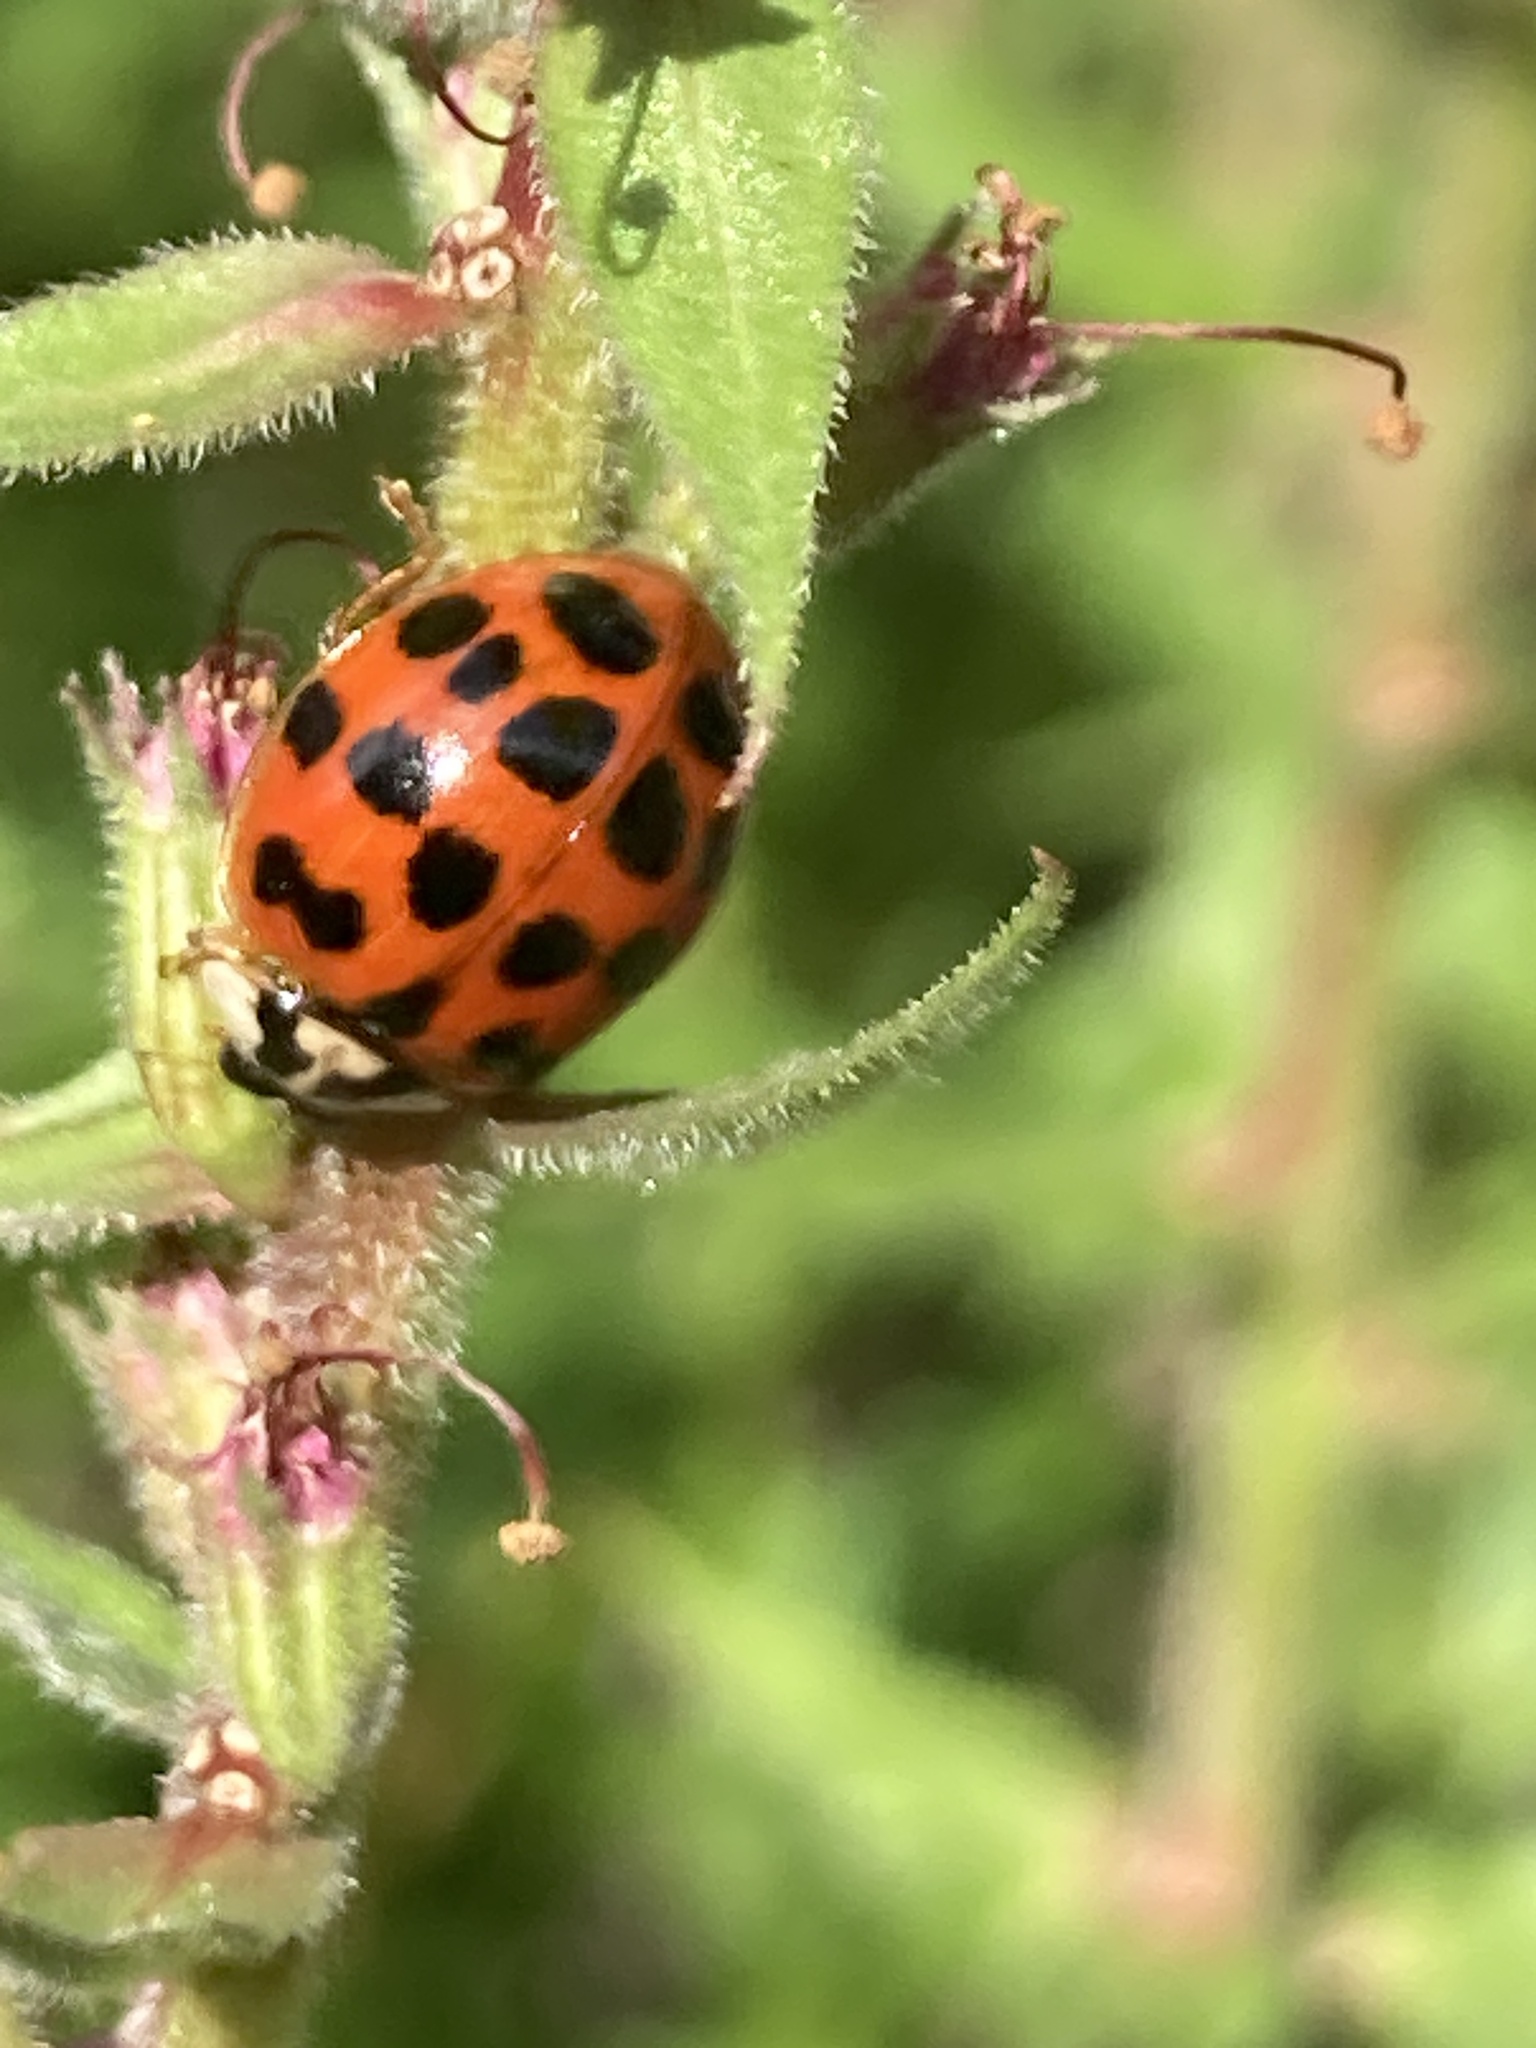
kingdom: Animalia
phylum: Arthropoda
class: Insecta
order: Coleoptera
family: Coccinellidae
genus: Harmonia
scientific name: Harmonia axyridis
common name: Harlequin ladybird
